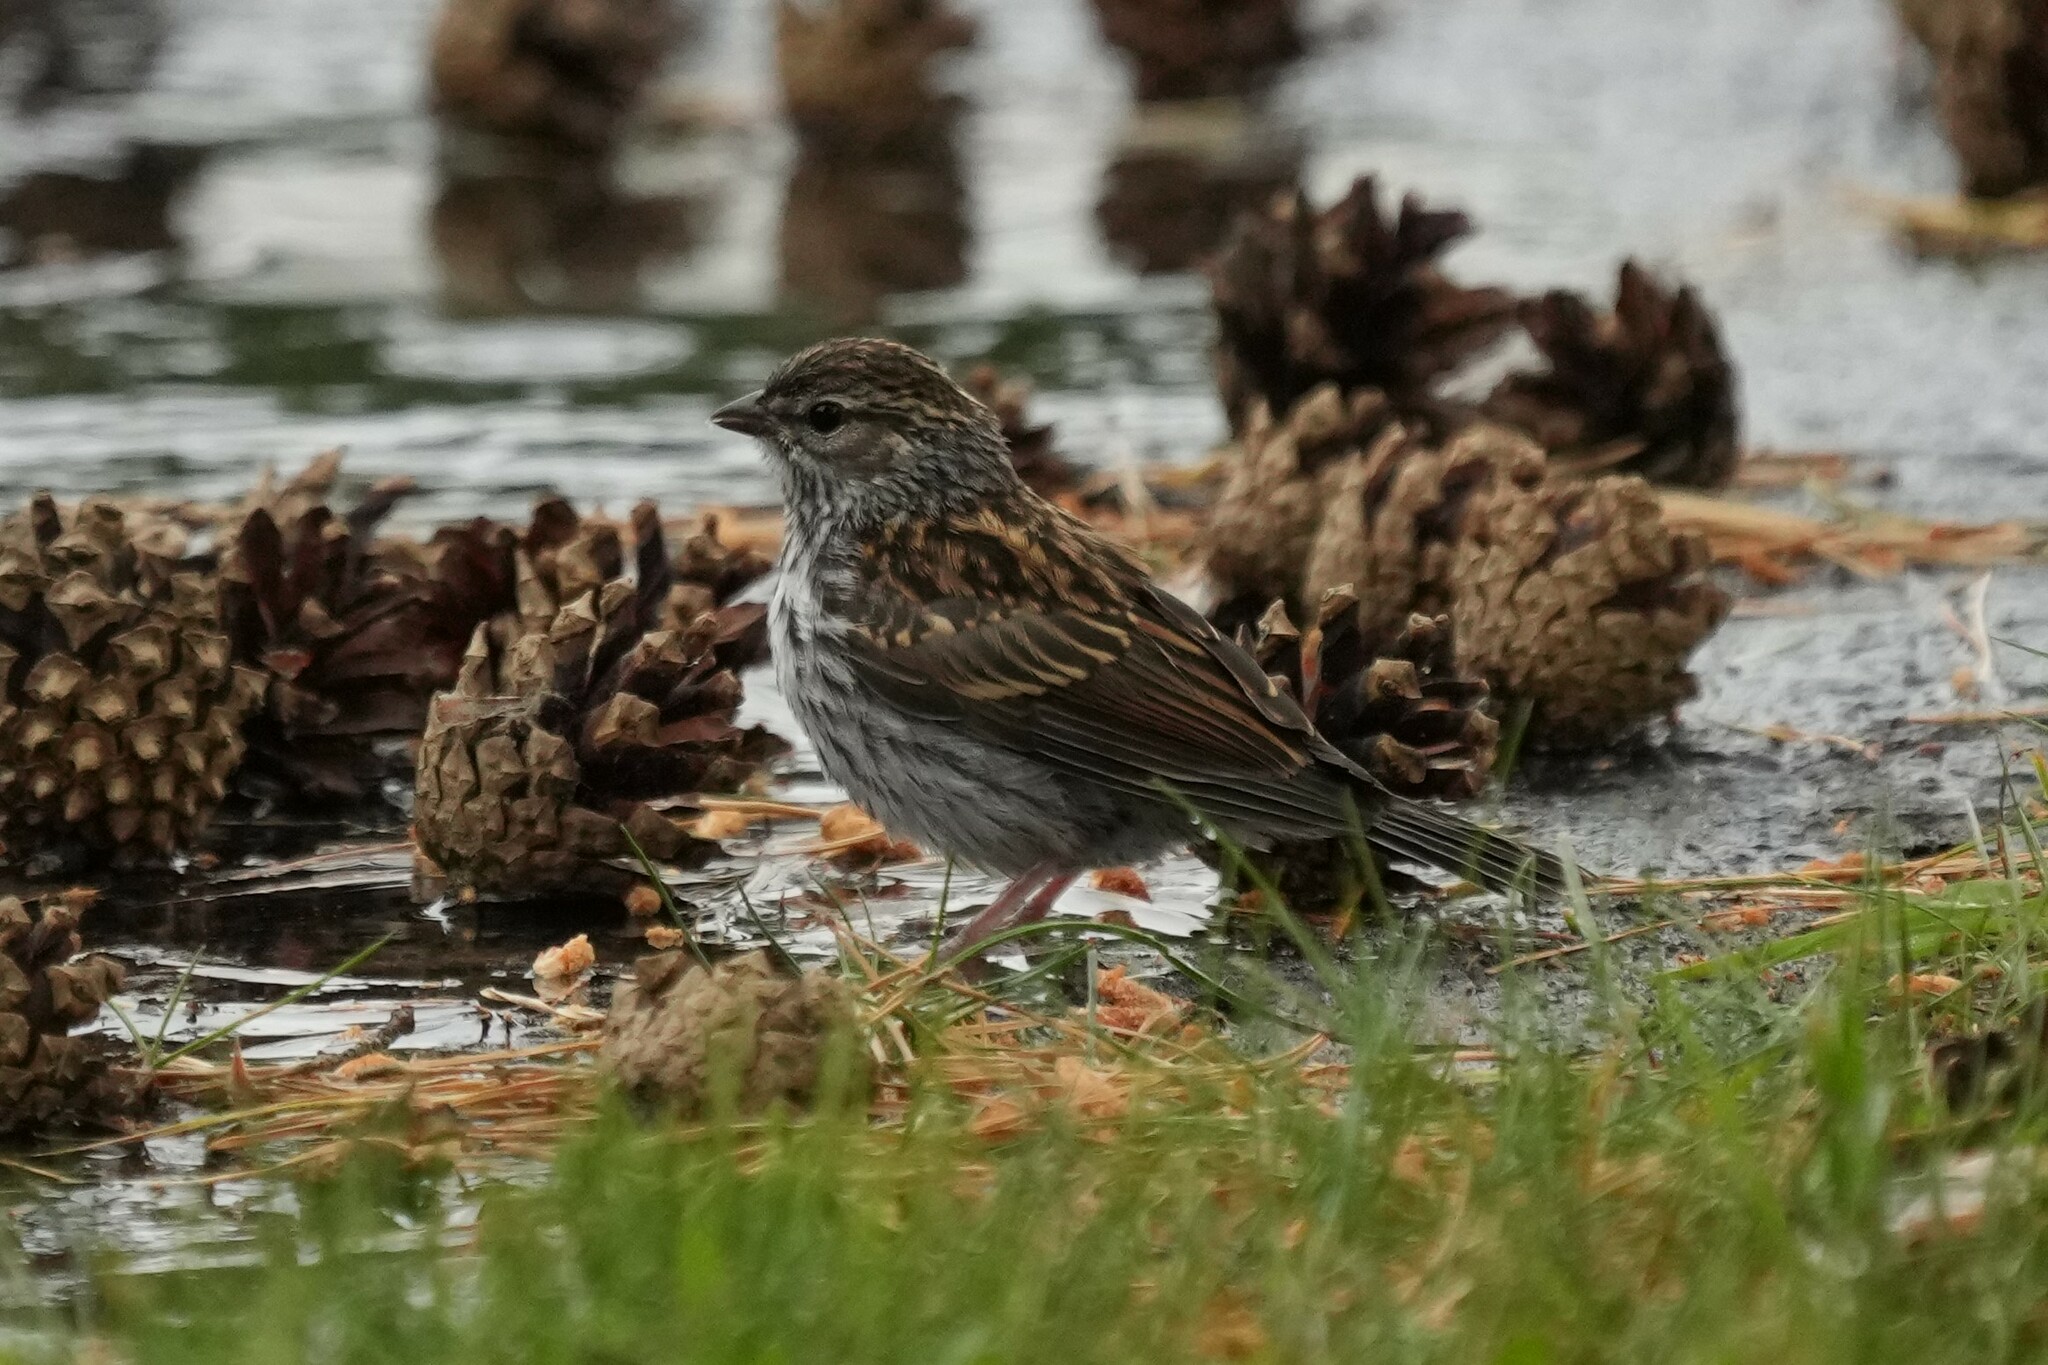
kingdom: Animalia
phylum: Chordata
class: Aves
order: Passeriformes
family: Passerellidae
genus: Spizella
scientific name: Spizella passerina
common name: Chipping sparrow
